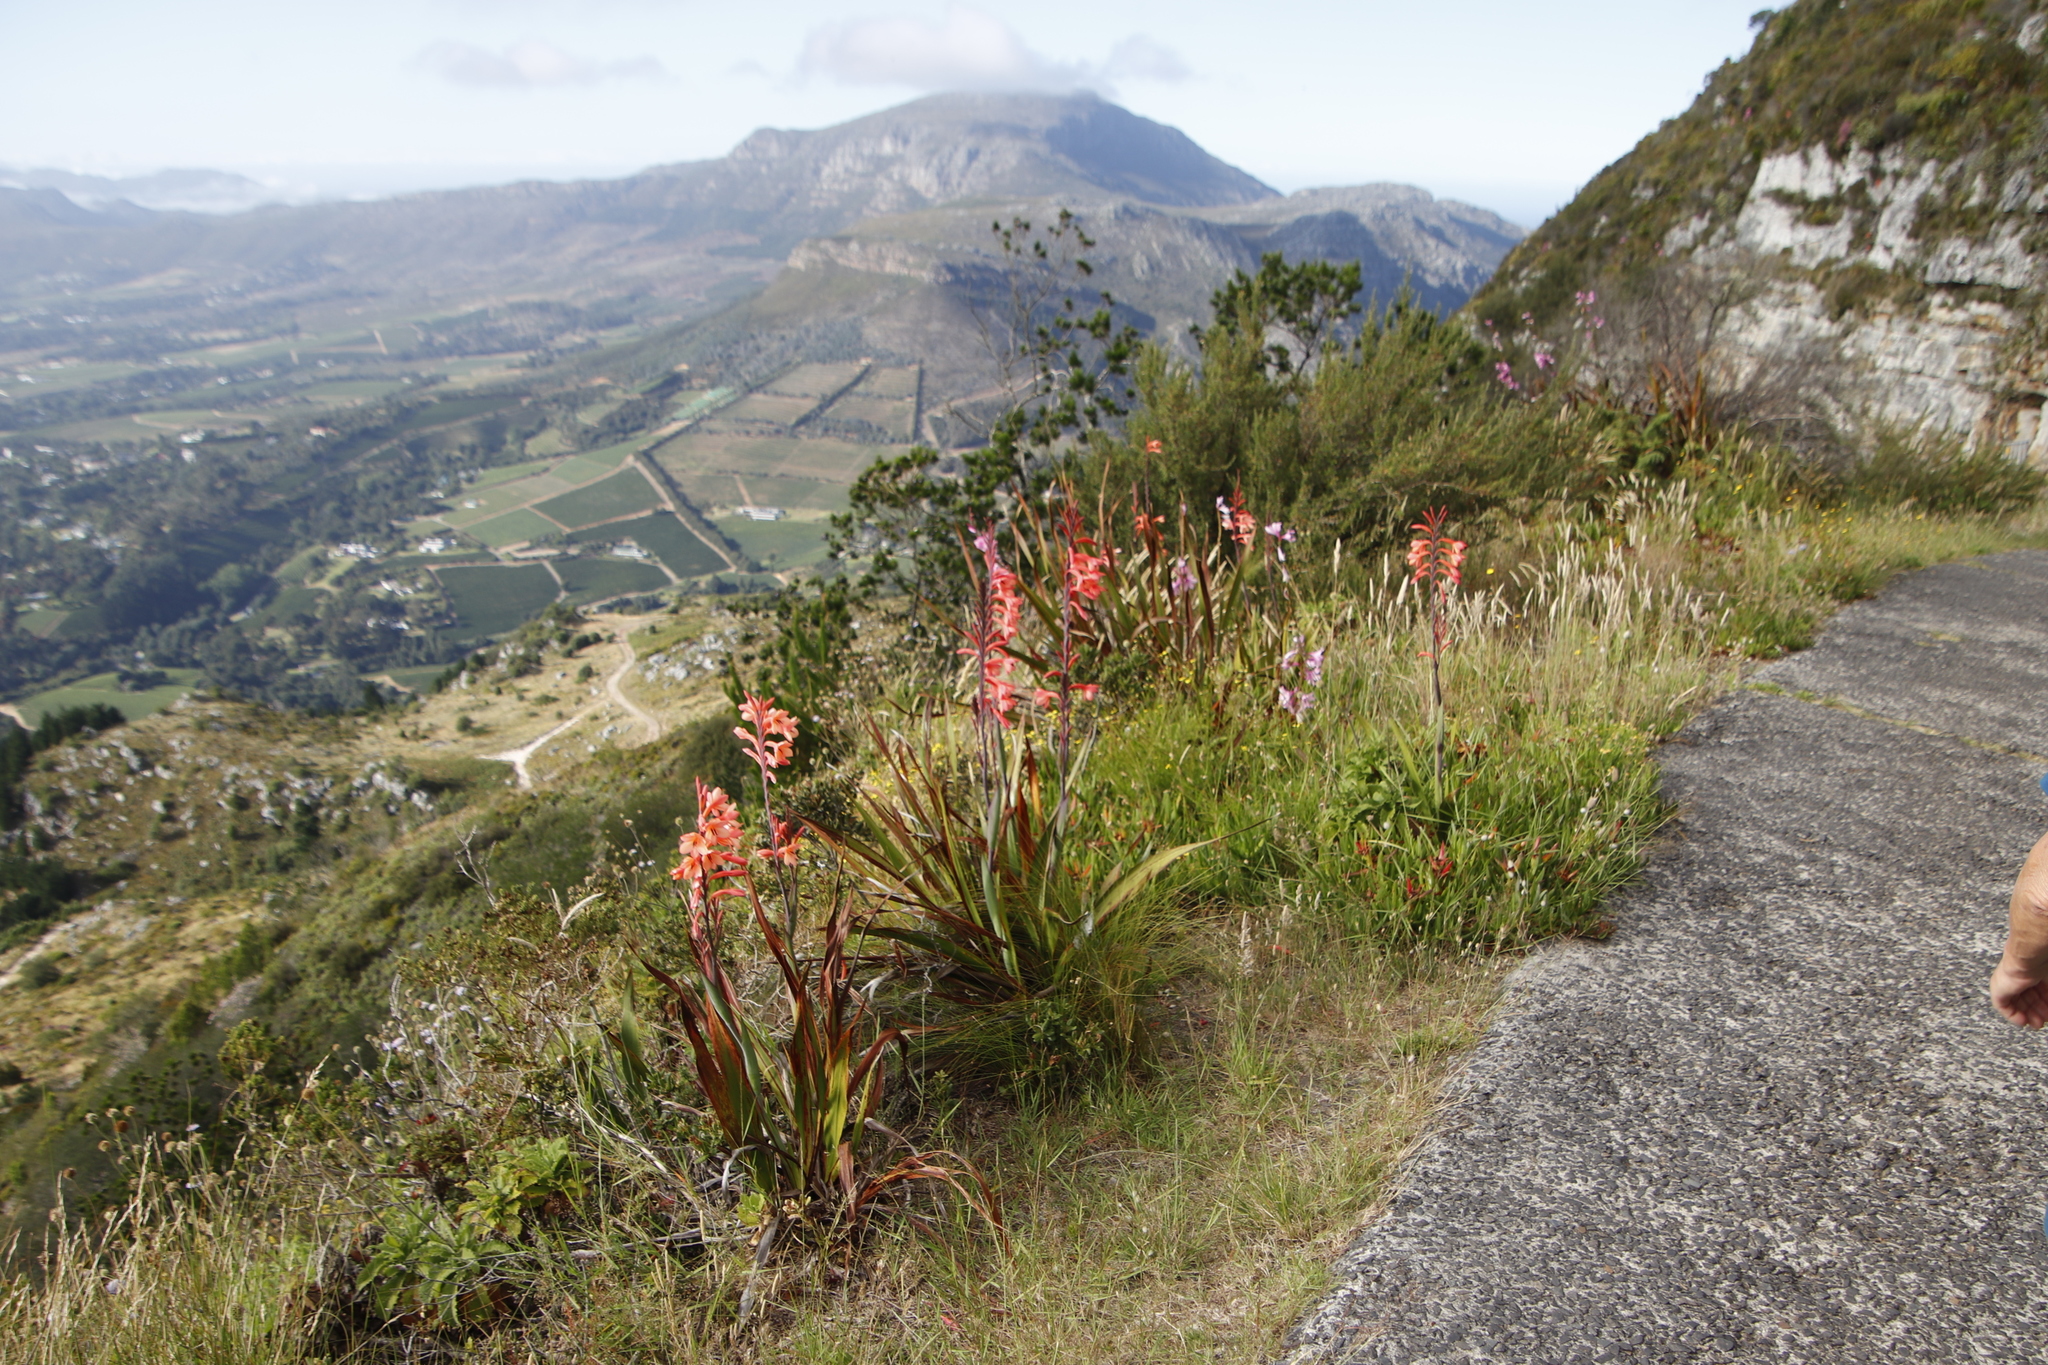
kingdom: Plantae
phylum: Tracheophyta
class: Liliopsida
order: Asparagales
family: Iridaceae
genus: Watsonia
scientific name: Watsonia tabularis
